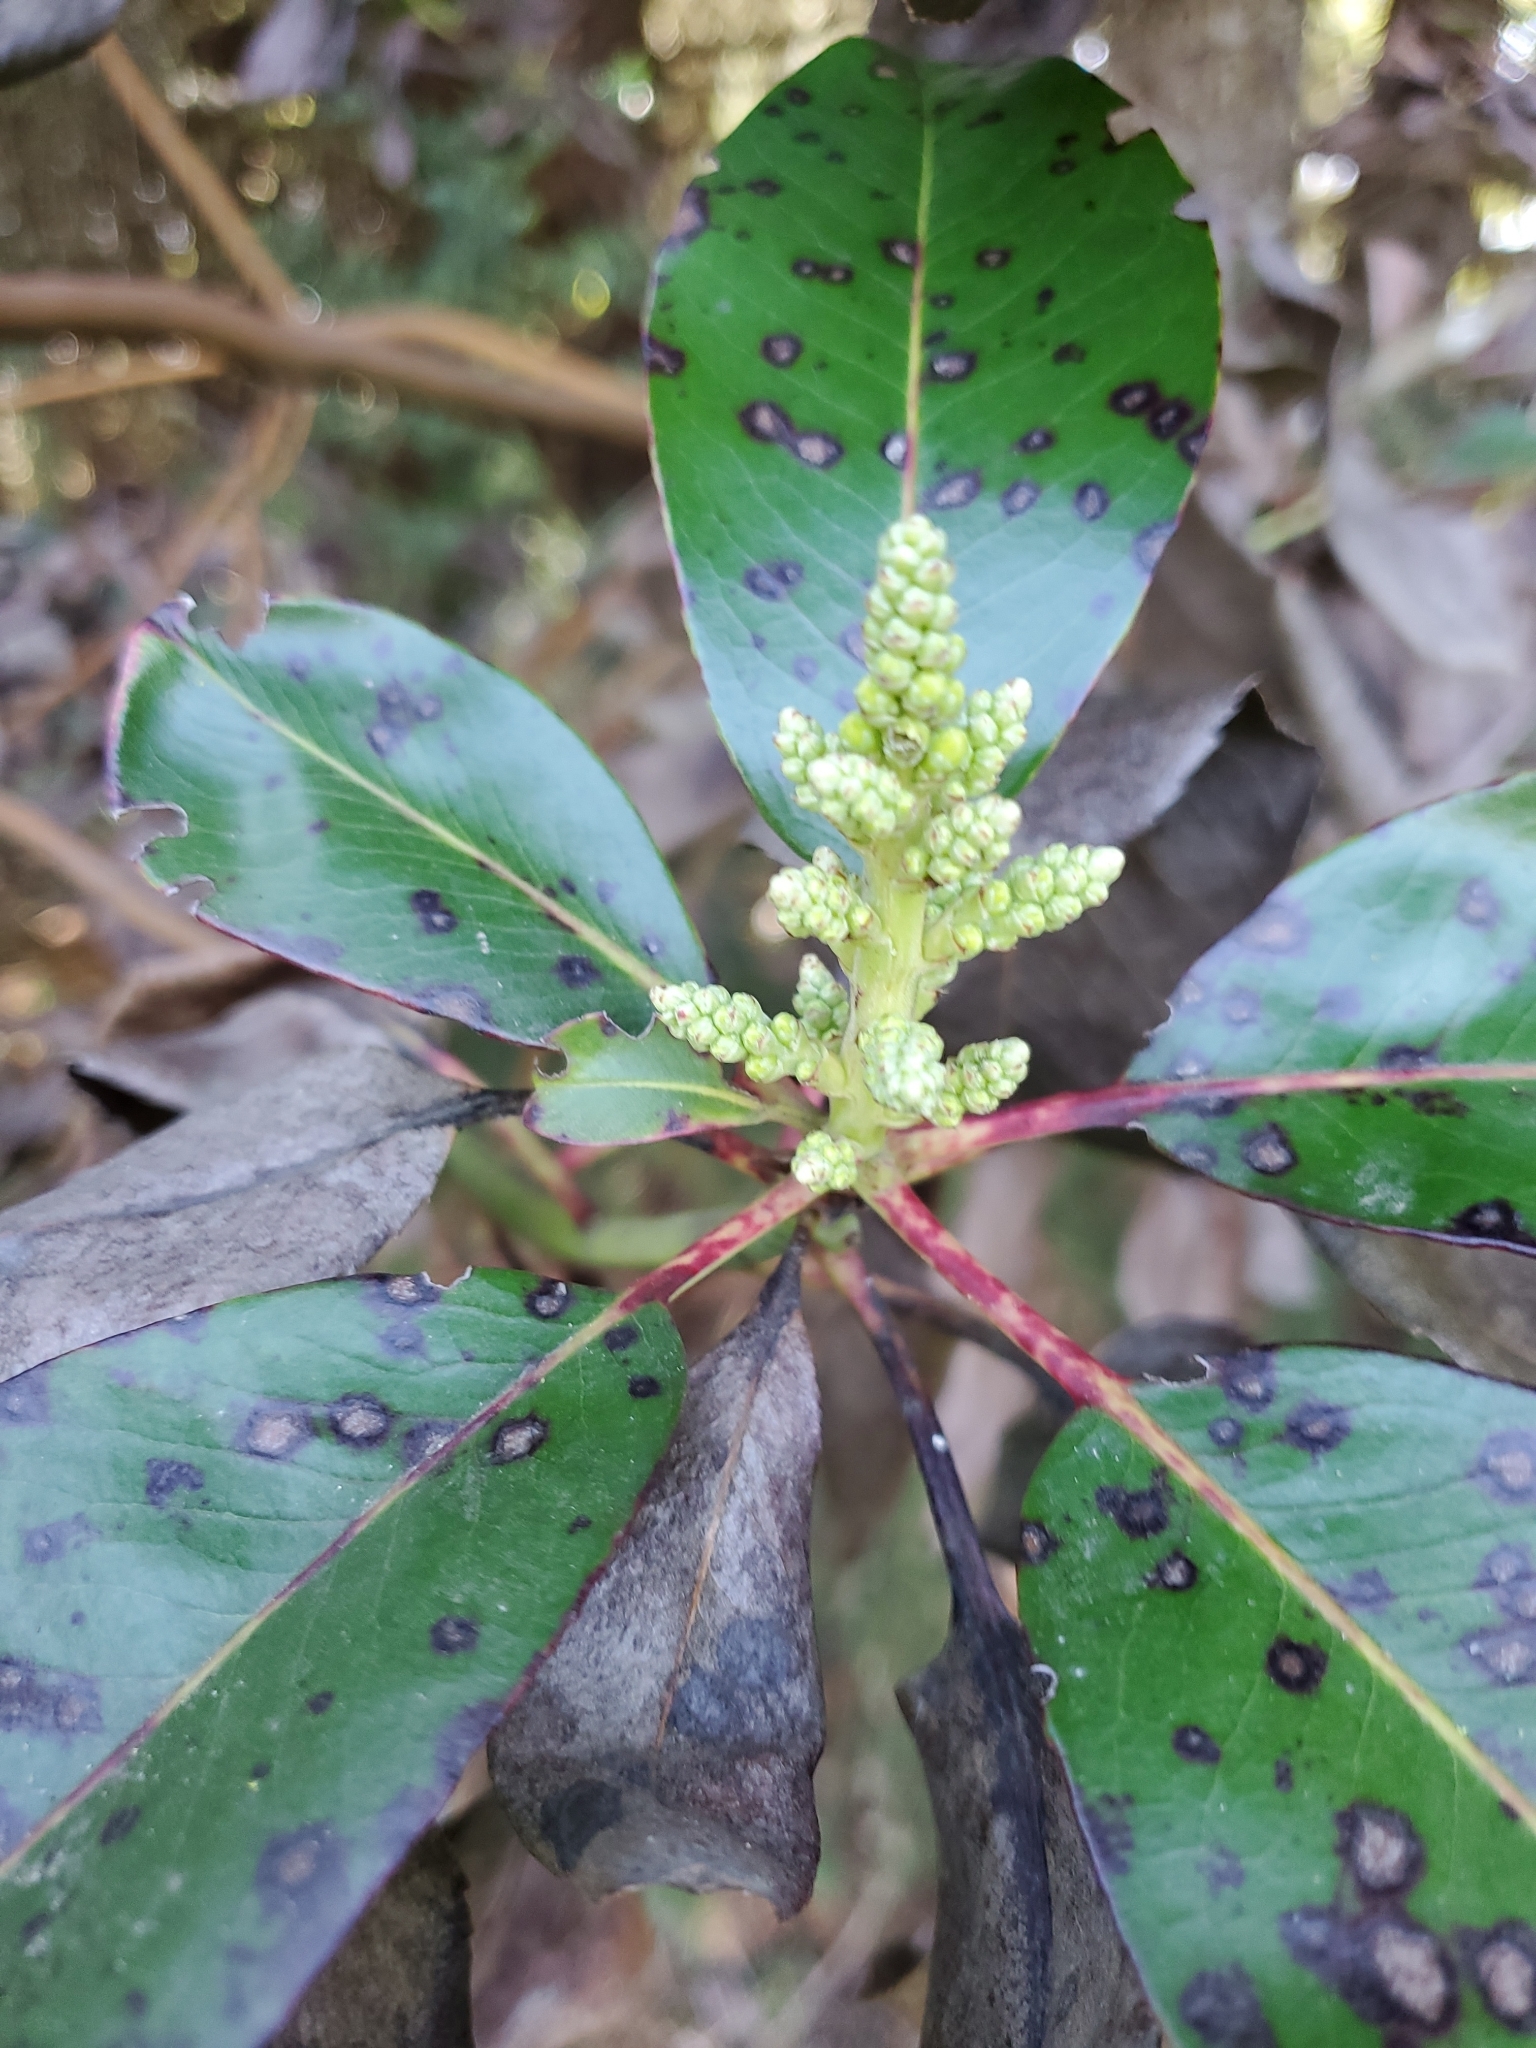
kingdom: Plantae
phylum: Tracheophyta
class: Magnoliopsida
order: Ericales
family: Ericaceae
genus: Arbutus
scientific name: Arbutus menziesii
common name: Pacific madrone
